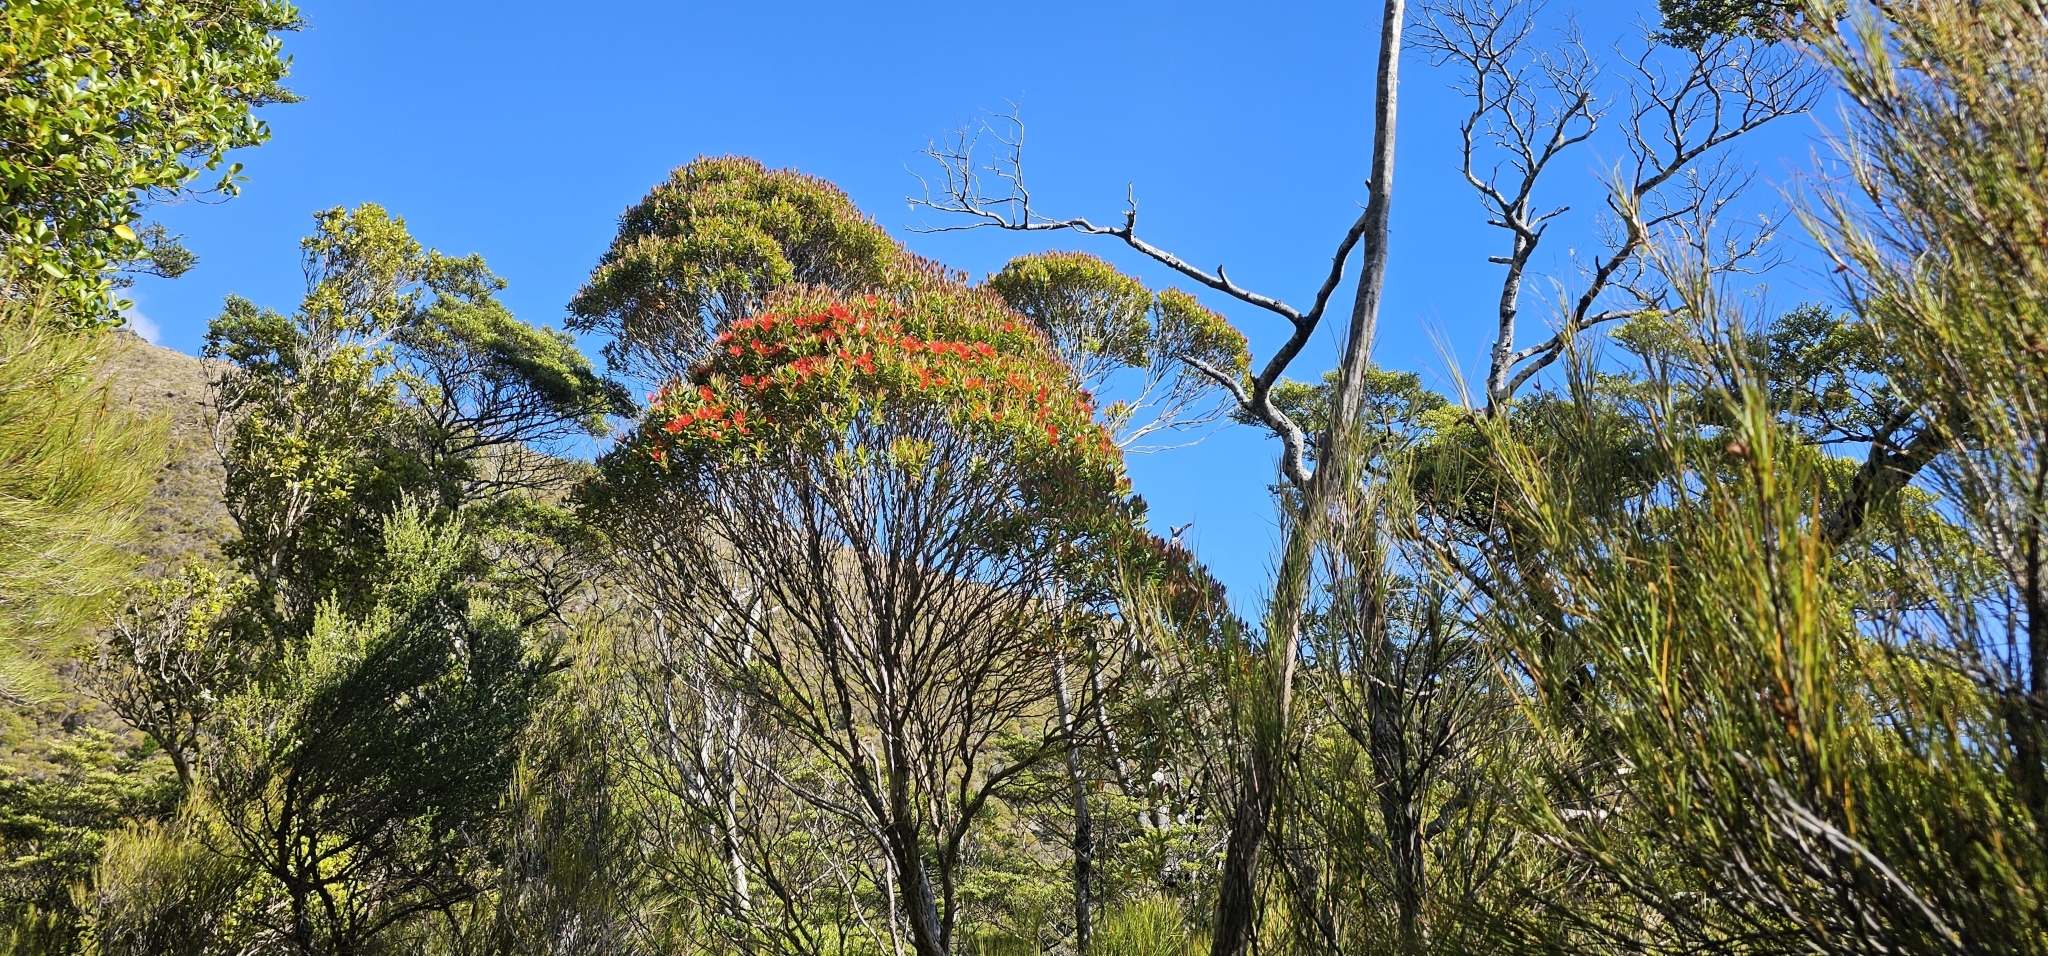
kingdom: Plantae
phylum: Tracheophyta
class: Magnoliopsida
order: Myrtales
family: Myrtaceae
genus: Metrosideros
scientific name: Metrosideros umbellata
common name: Southern rata
